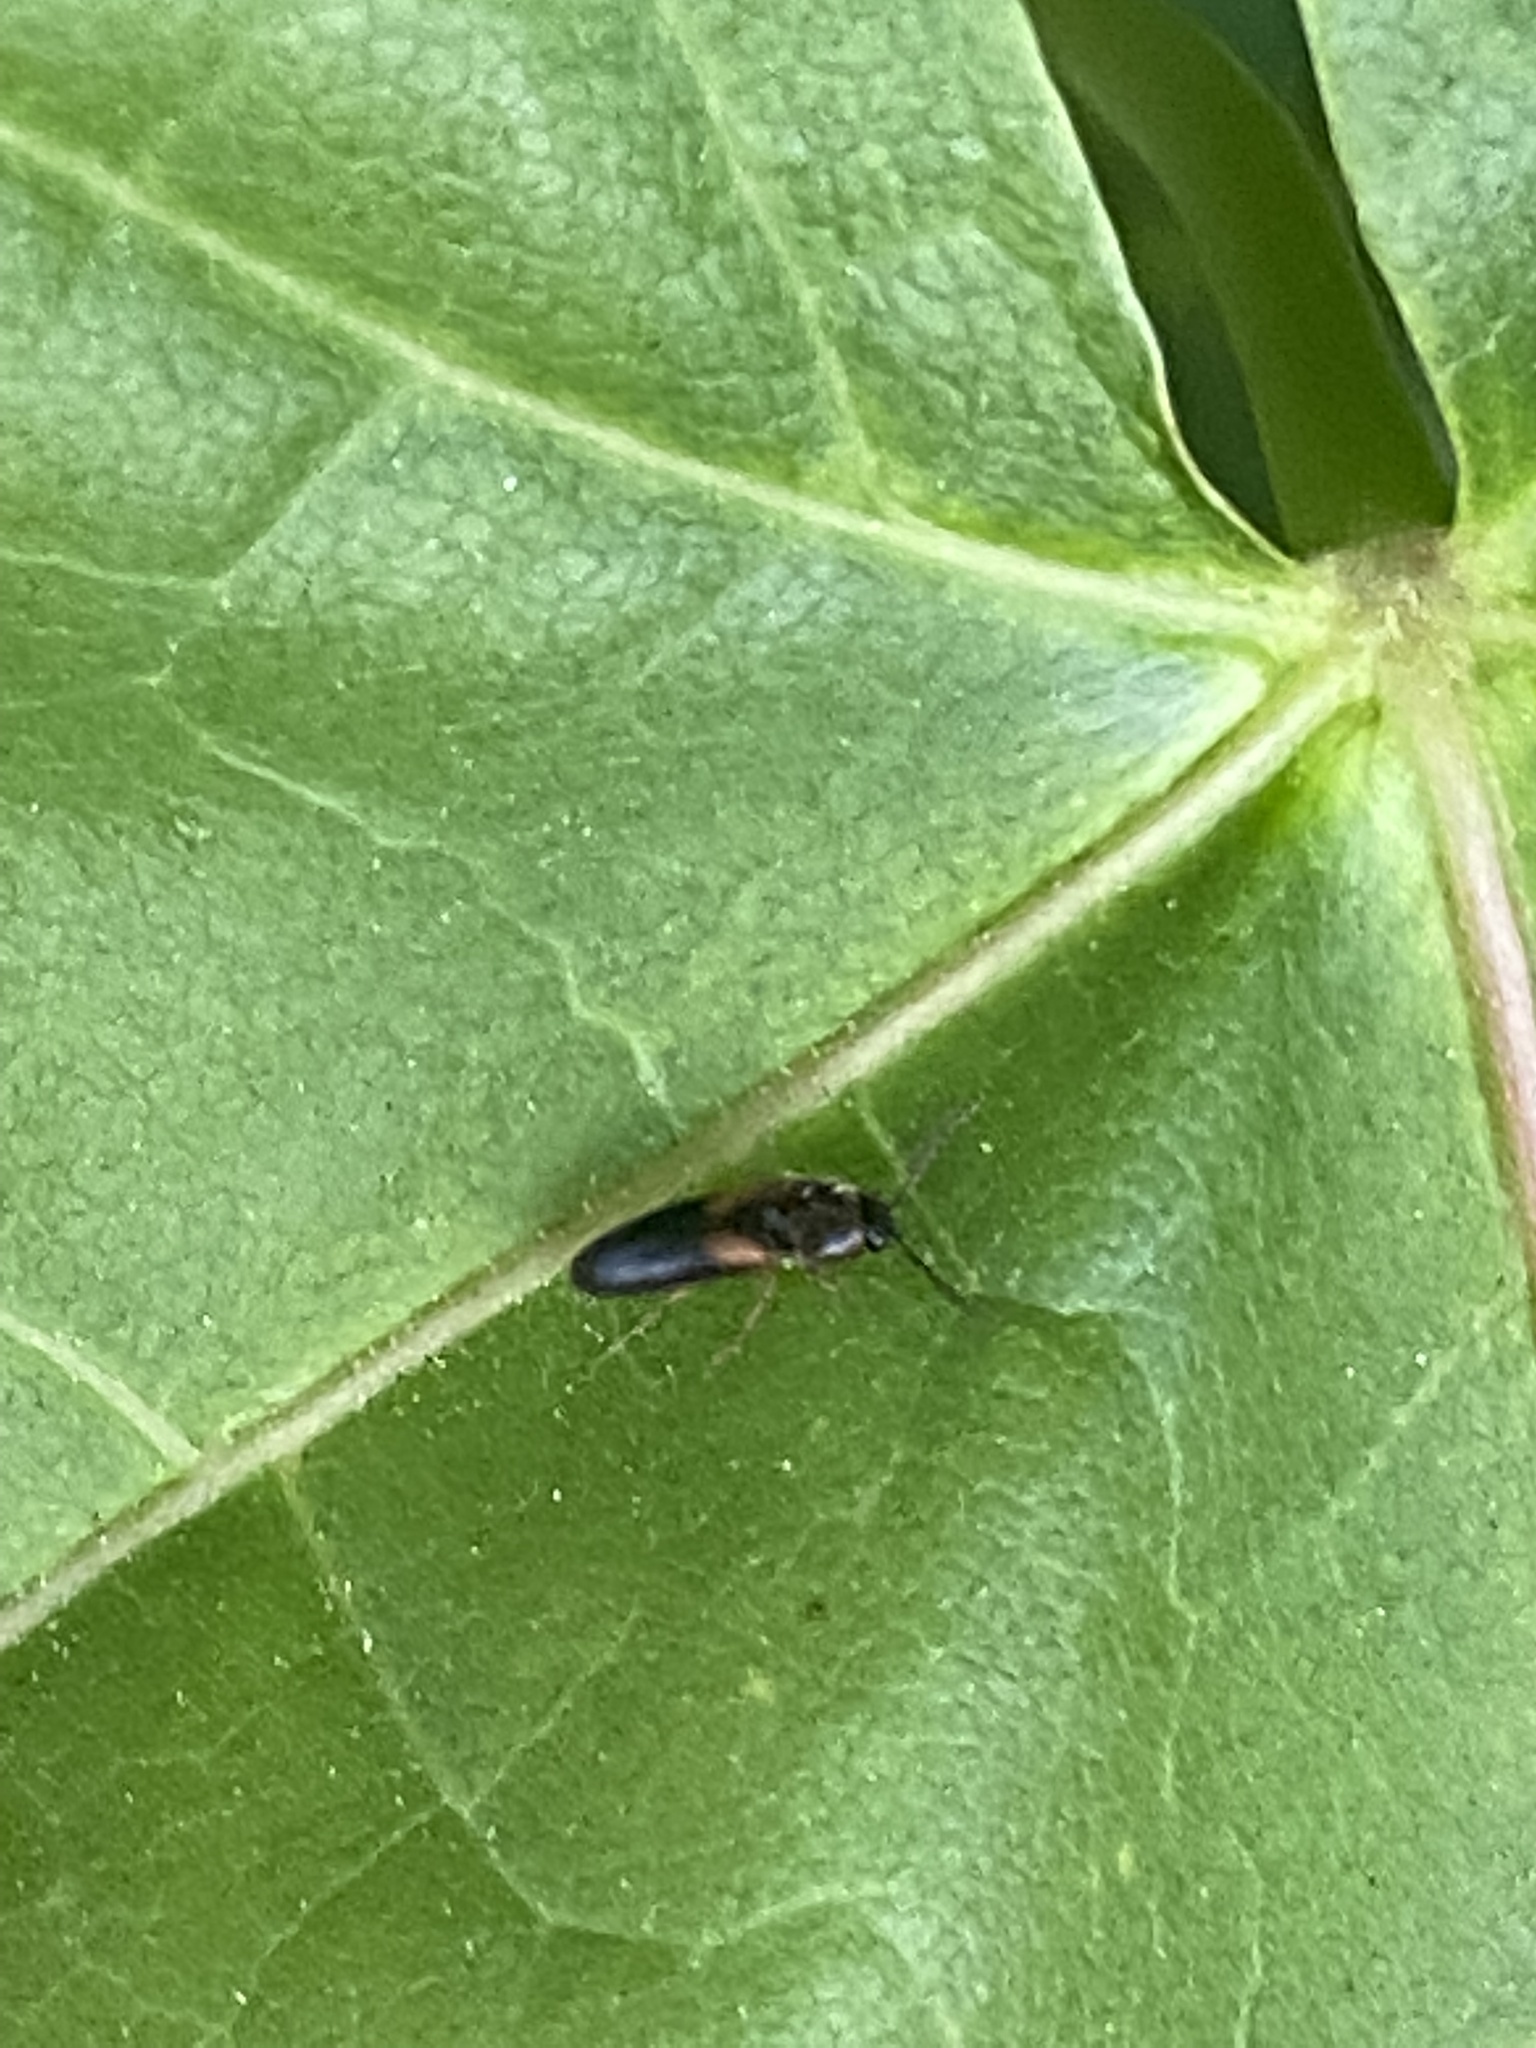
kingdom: Animalia
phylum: Arthropoda
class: Insecta
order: Coleoptera
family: Elateridae
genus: Ampedus
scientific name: Ampedus areolatus
